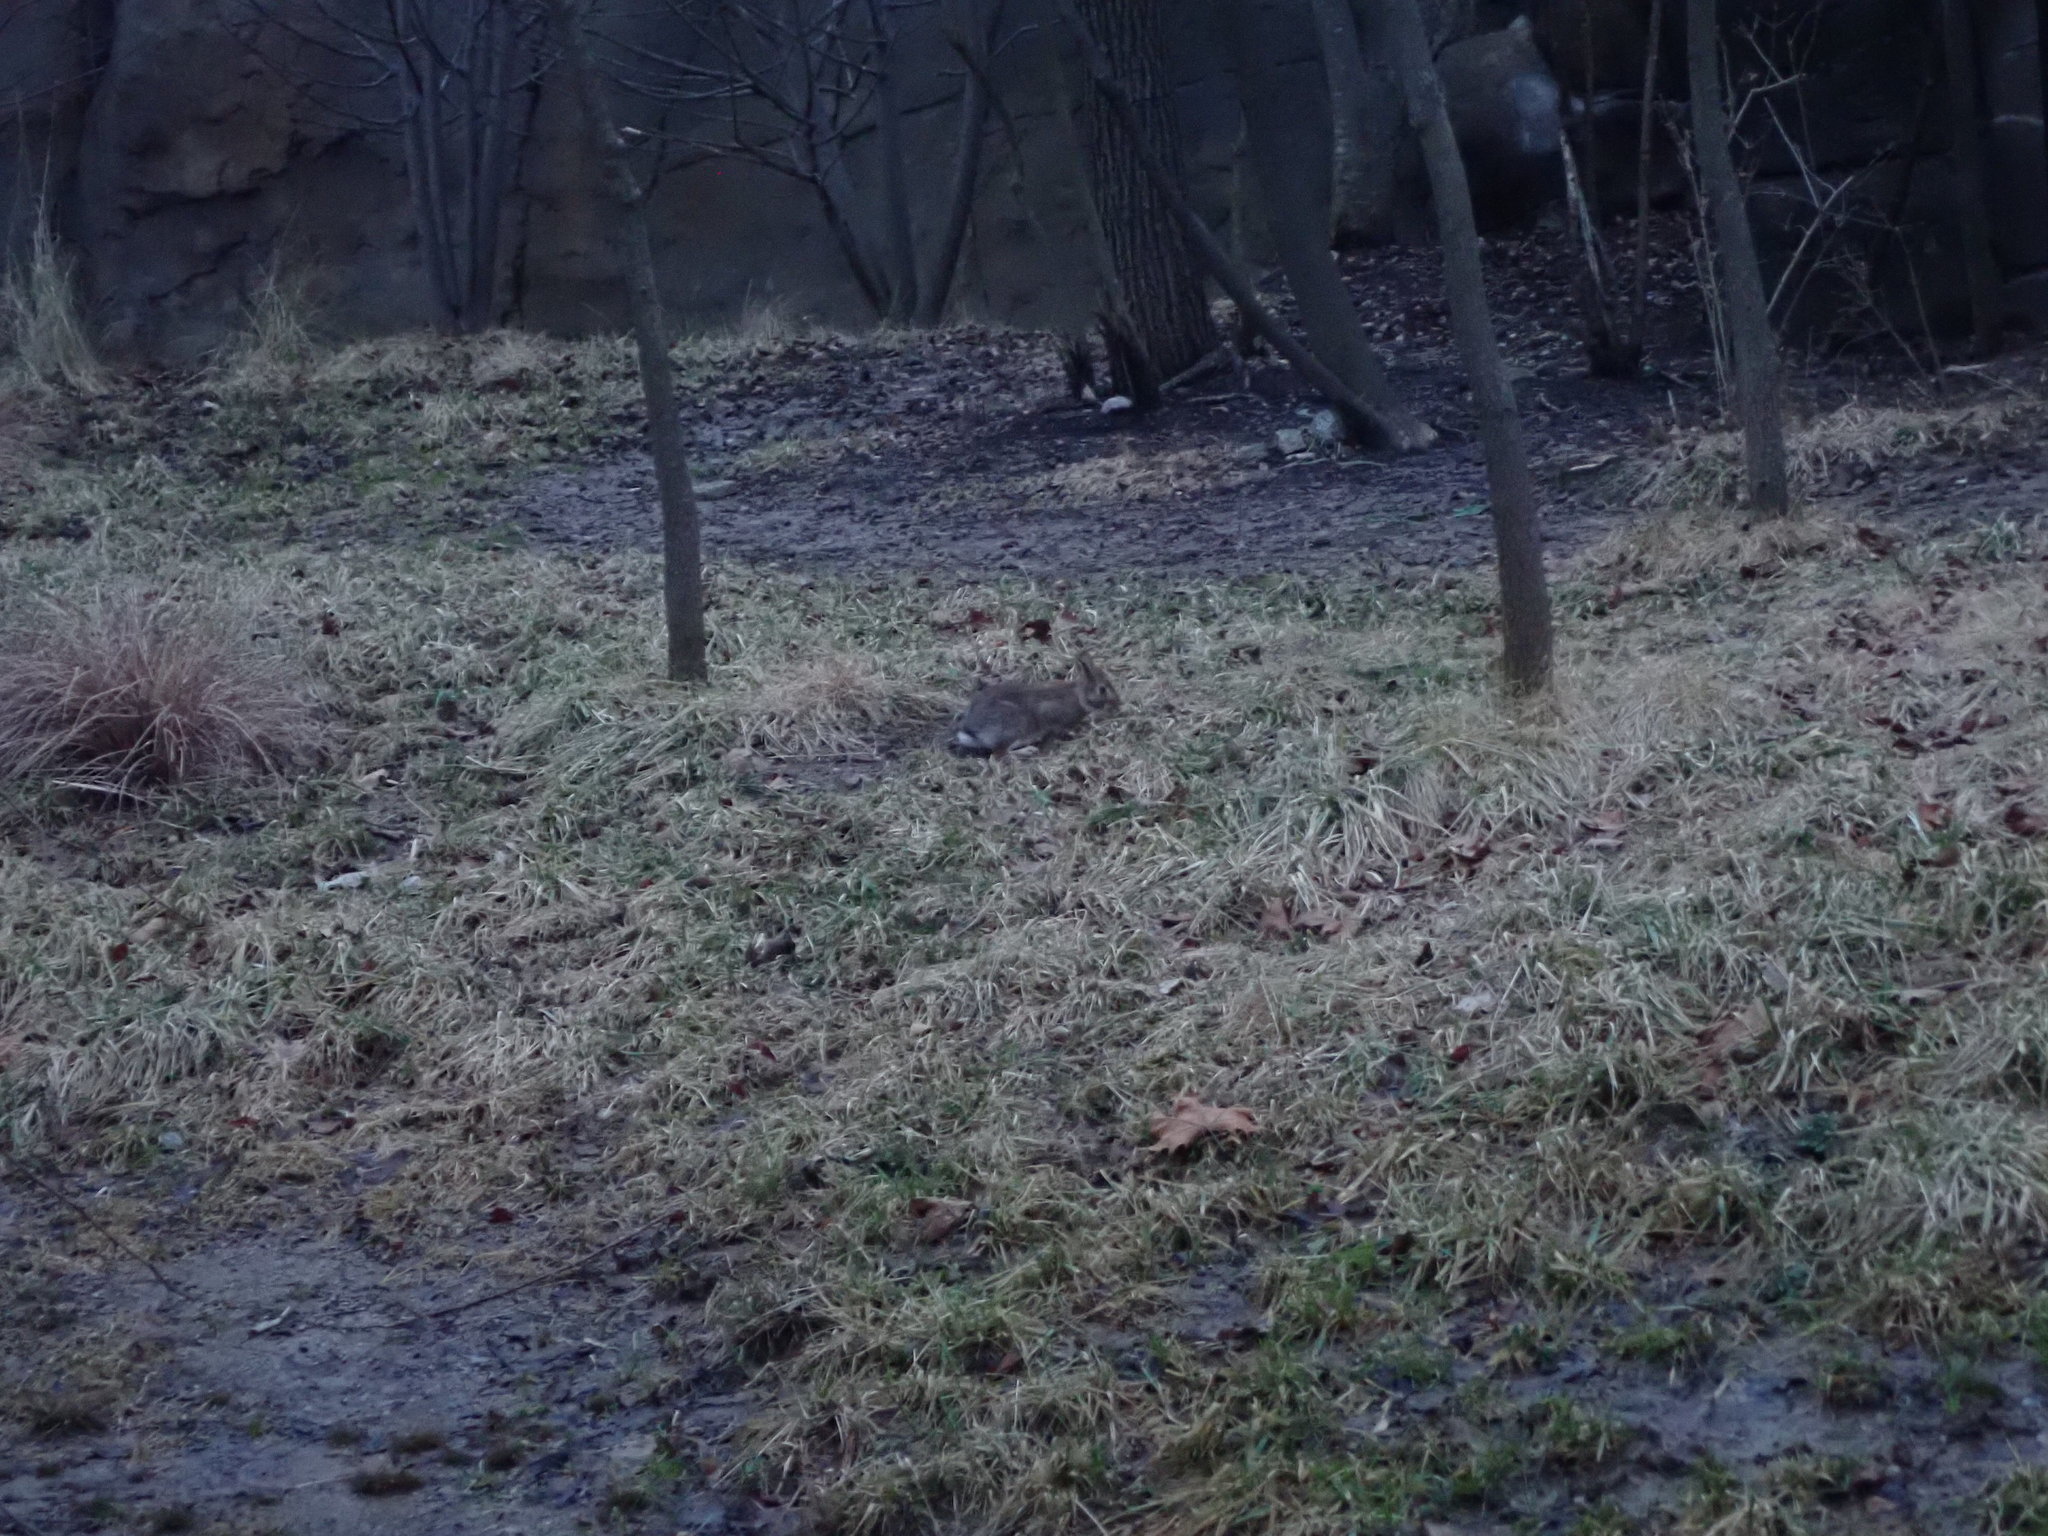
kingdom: Animalia
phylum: Chordata
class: Mammalia
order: Lagomorpha
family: Leporidae
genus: Sylvilagus
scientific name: Sylvilagus floridanus
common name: Eastern cottontail
